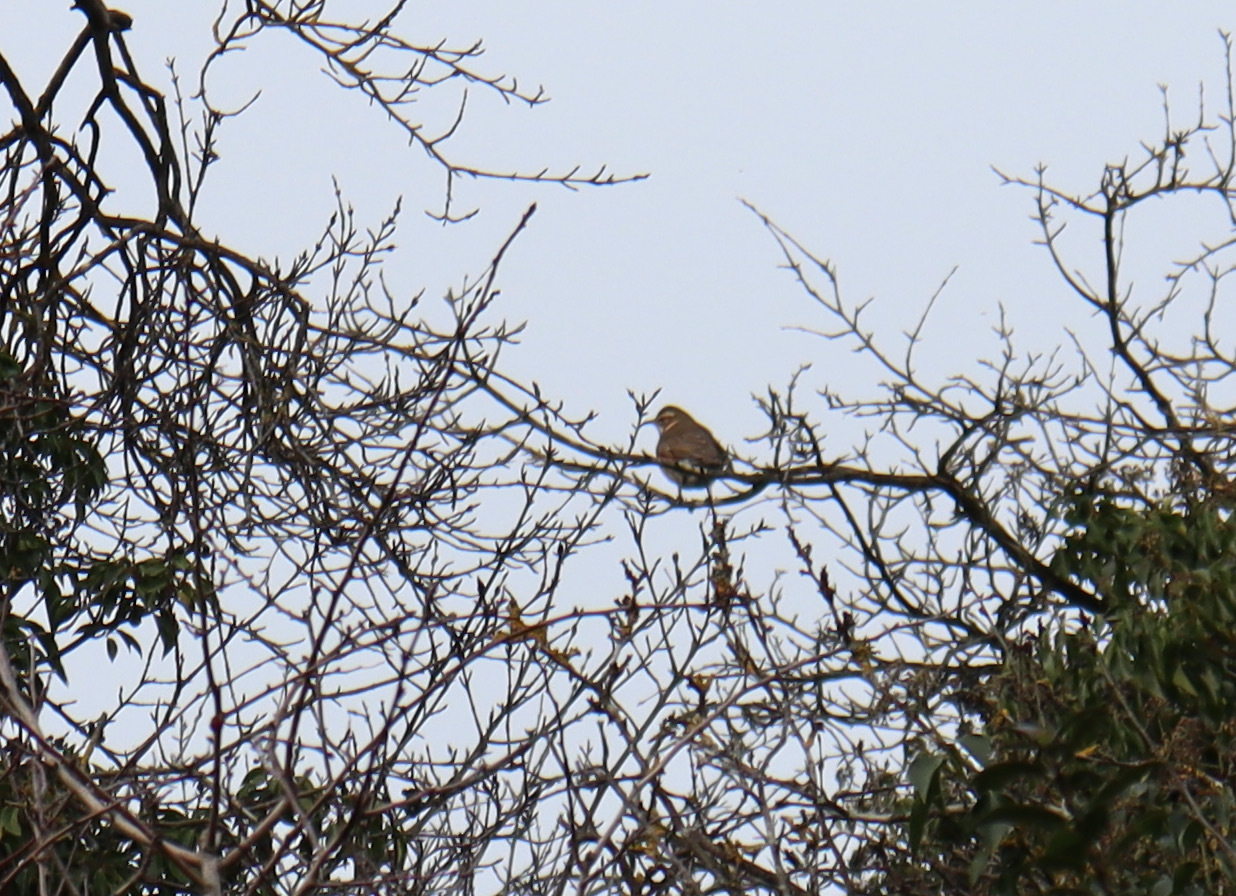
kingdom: Animalia
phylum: Chordata
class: Aves
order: Passeriformes
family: Turdidae
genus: Turdus
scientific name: Turdus iliacus
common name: Redwing
